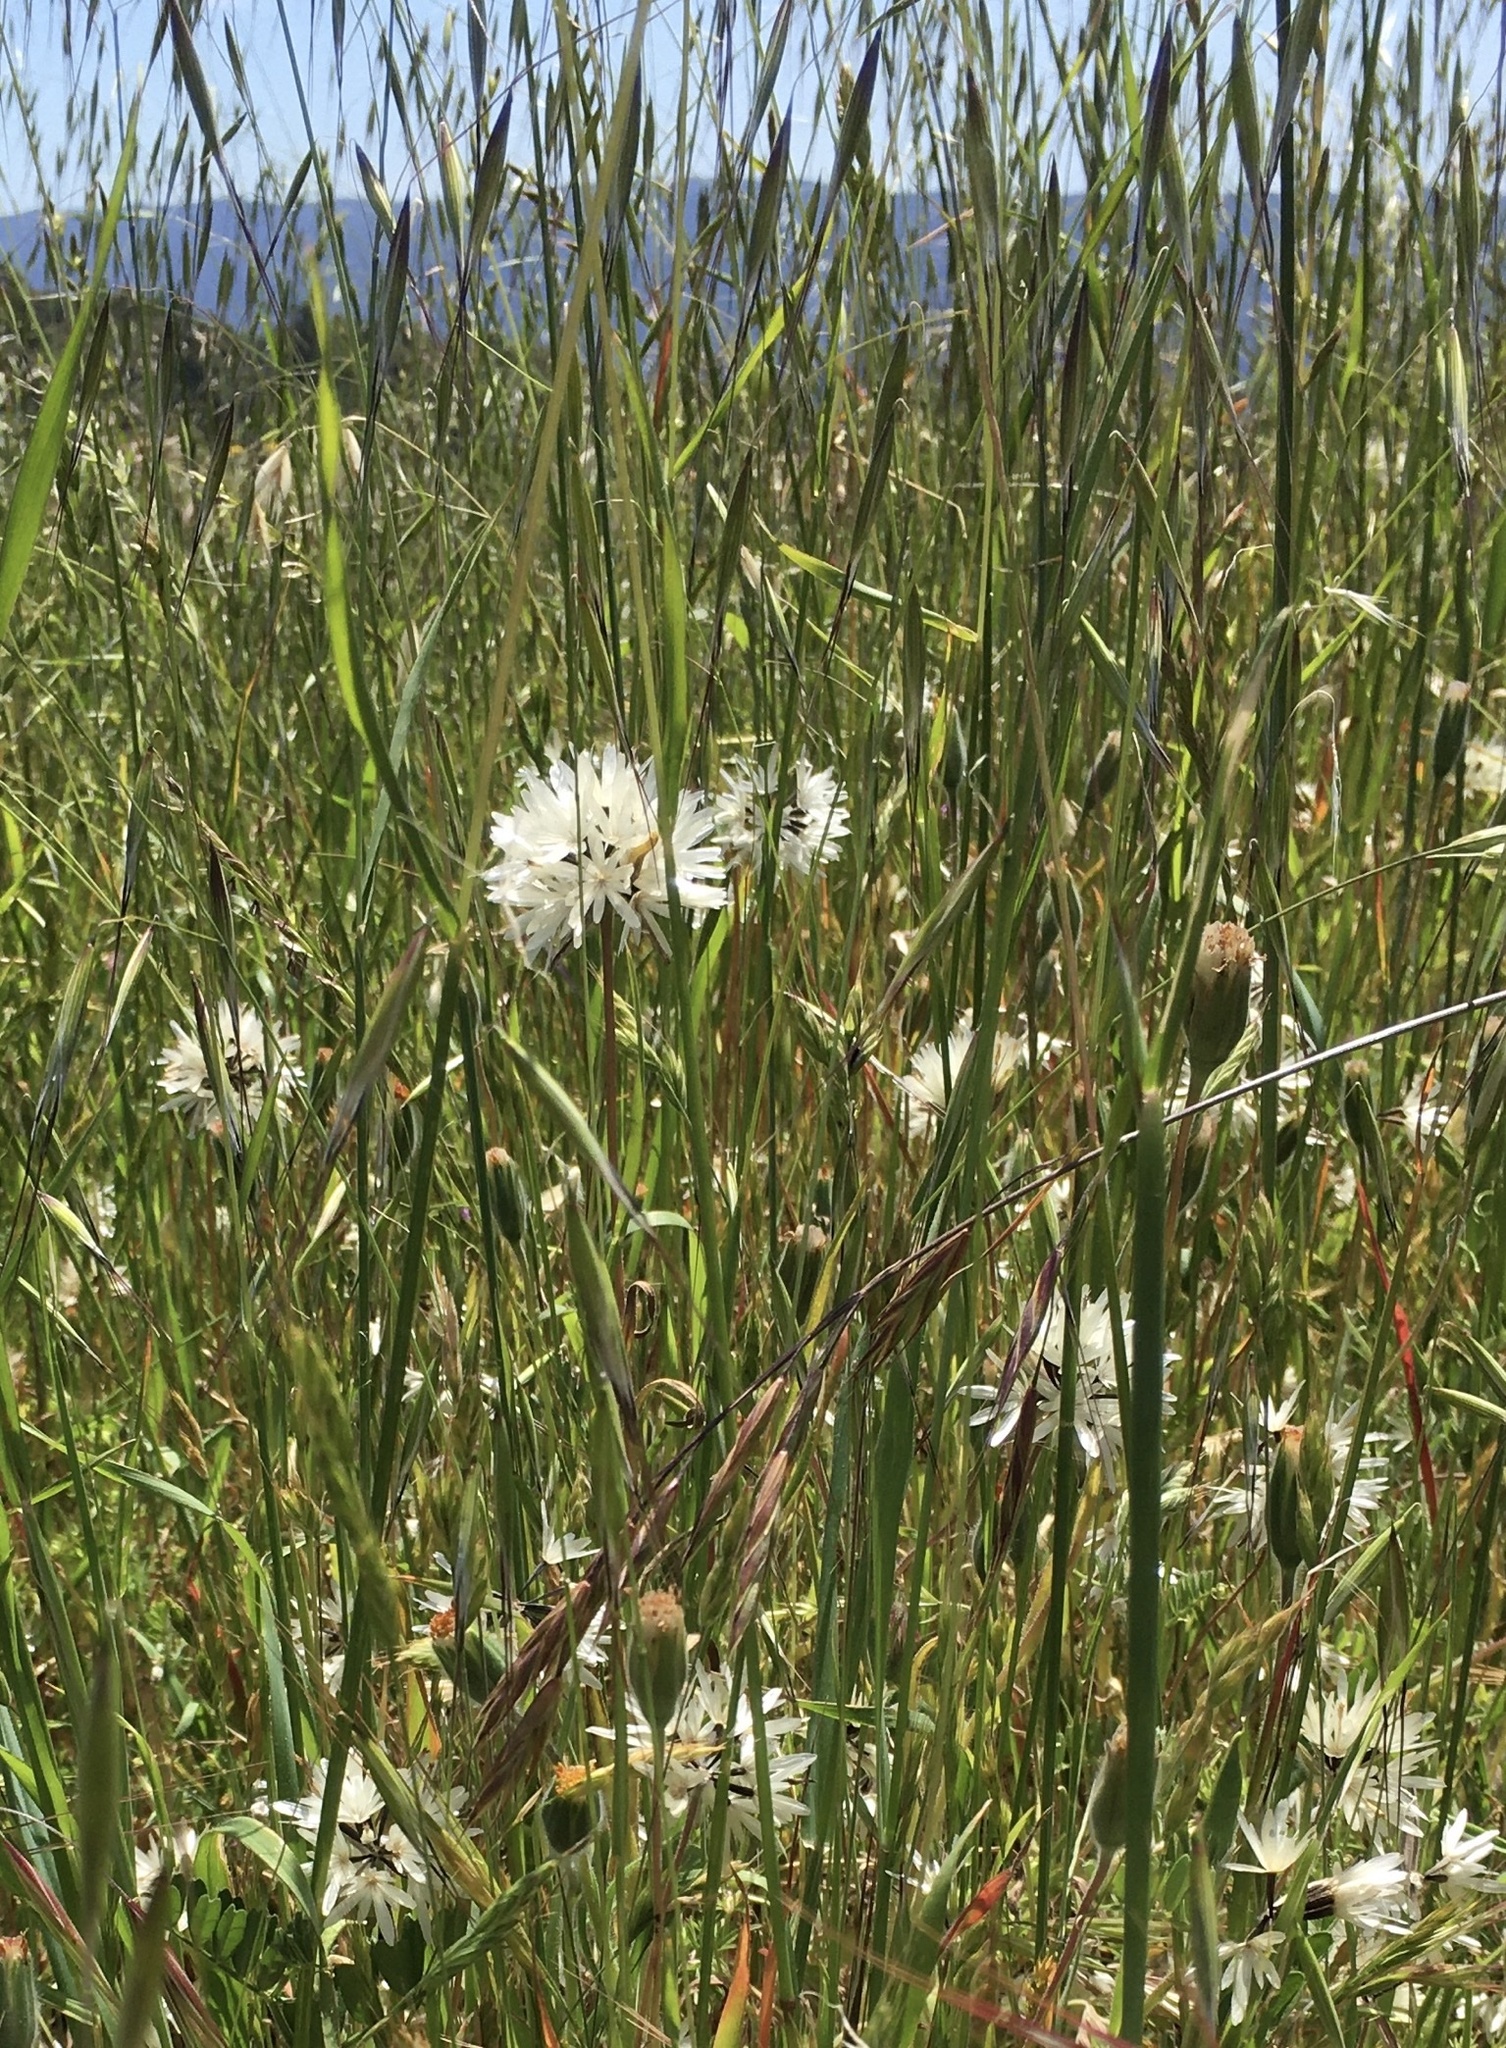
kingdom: Plantae
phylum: Tracheophyta
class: Magnoliopsida
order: Asterales
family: Asteraceae
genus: Achyrachaena
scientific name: Achyrachaena mollis
